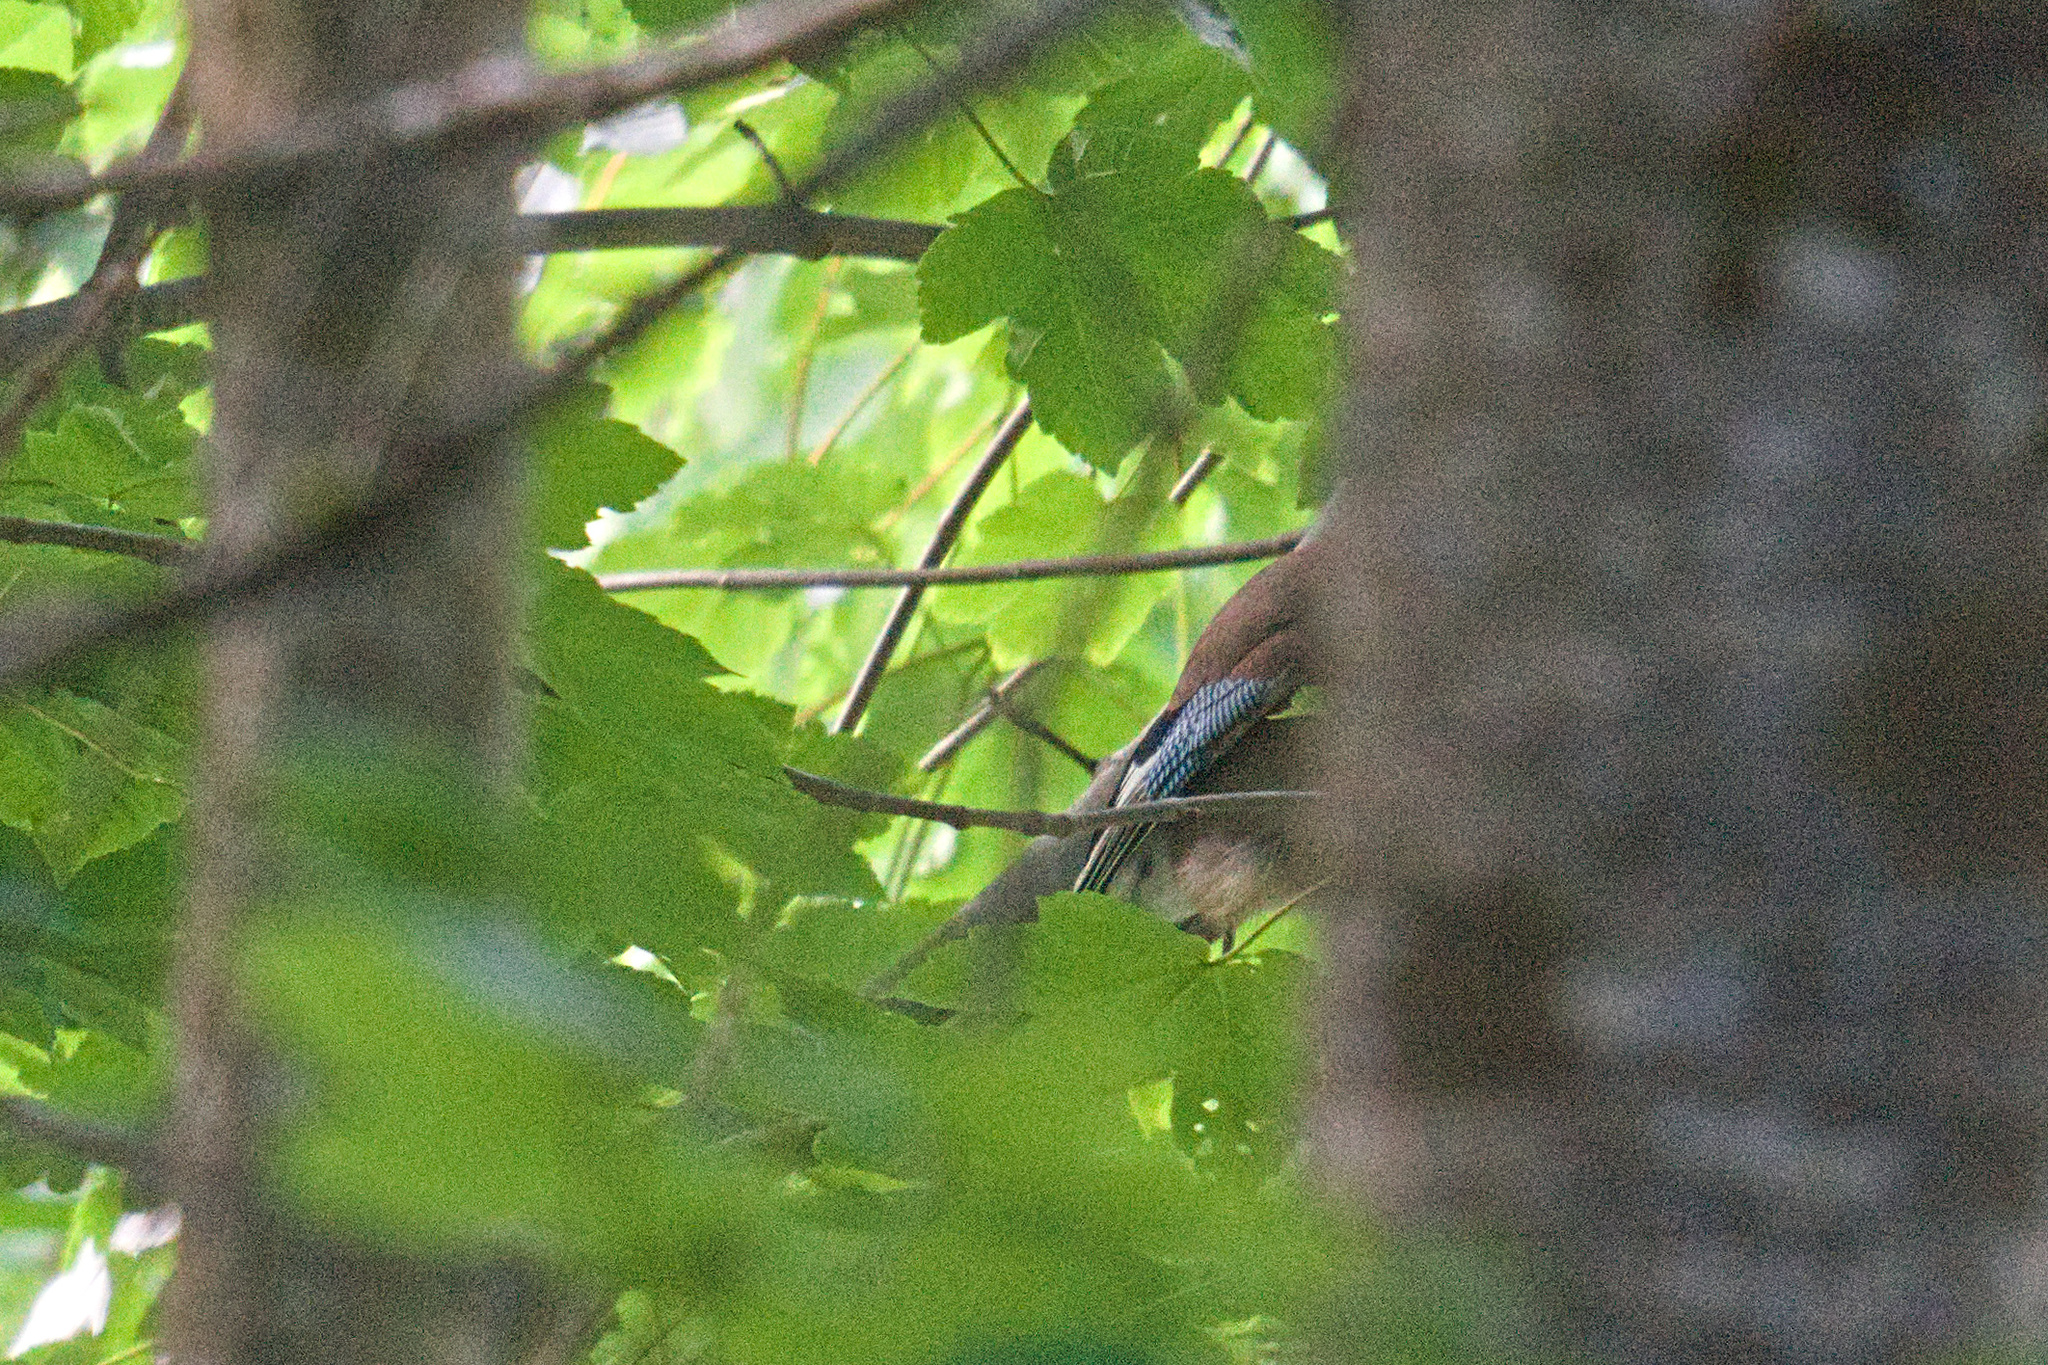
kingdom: Animalia
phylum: Chordata
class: Aves
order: Passeriformes
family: Corvidae
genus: Garrulus
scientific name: Garrulus glandarius
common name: Eurasian jay
